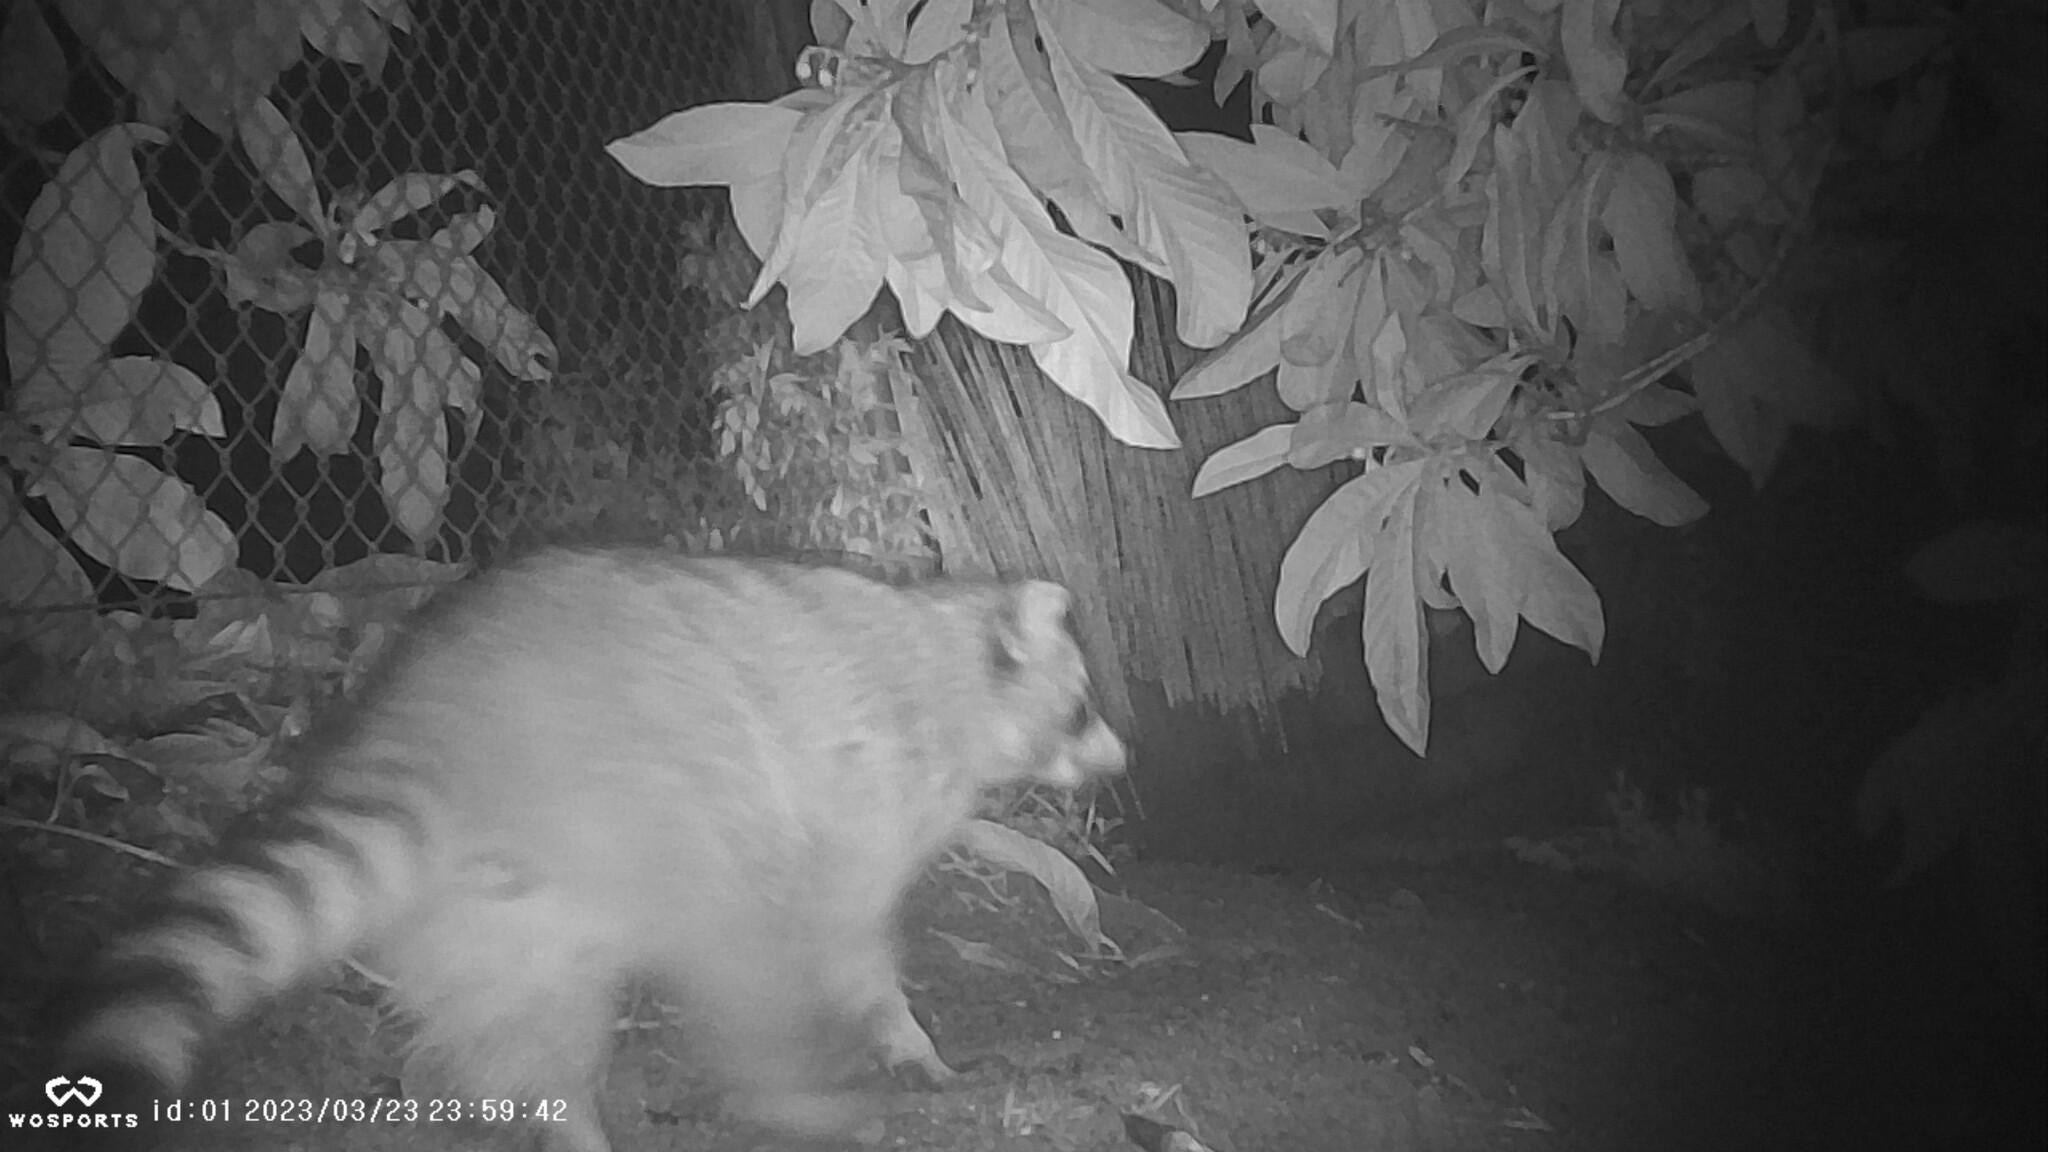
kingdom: Animalia
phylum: Chordata
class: Mammalia
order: Carnivora
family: Procyonidae
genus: Procyon
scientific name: Procyon lotor
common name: Raccoon
